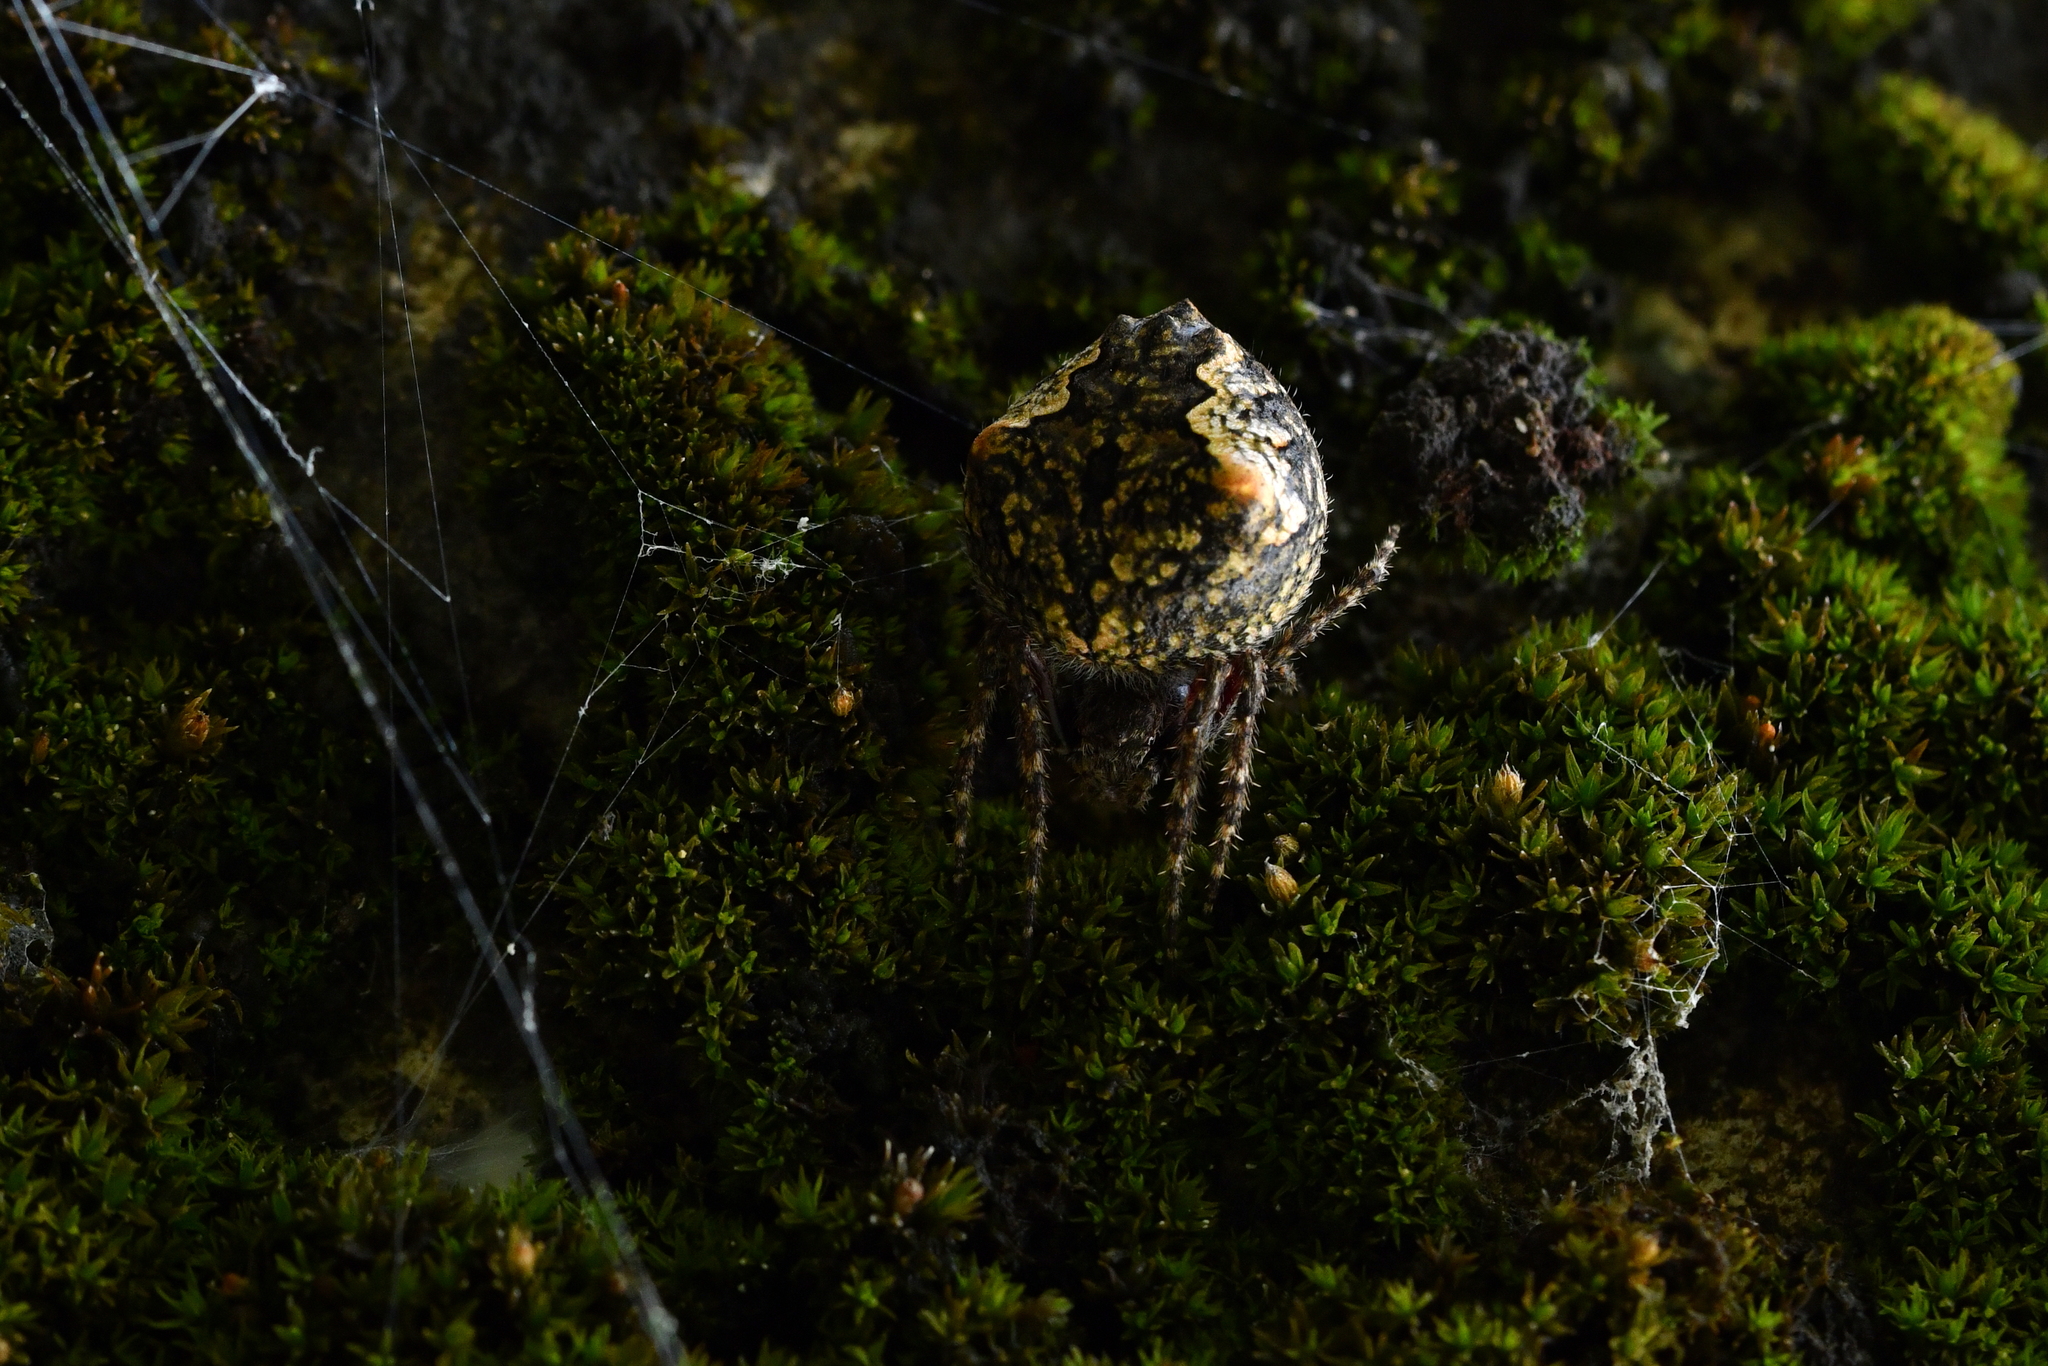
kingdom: Animalia
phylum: Arthropoda
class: Arachnida
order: Araneae
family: Araneidae
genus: Eriophora
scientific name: Eriophora pustulosa
